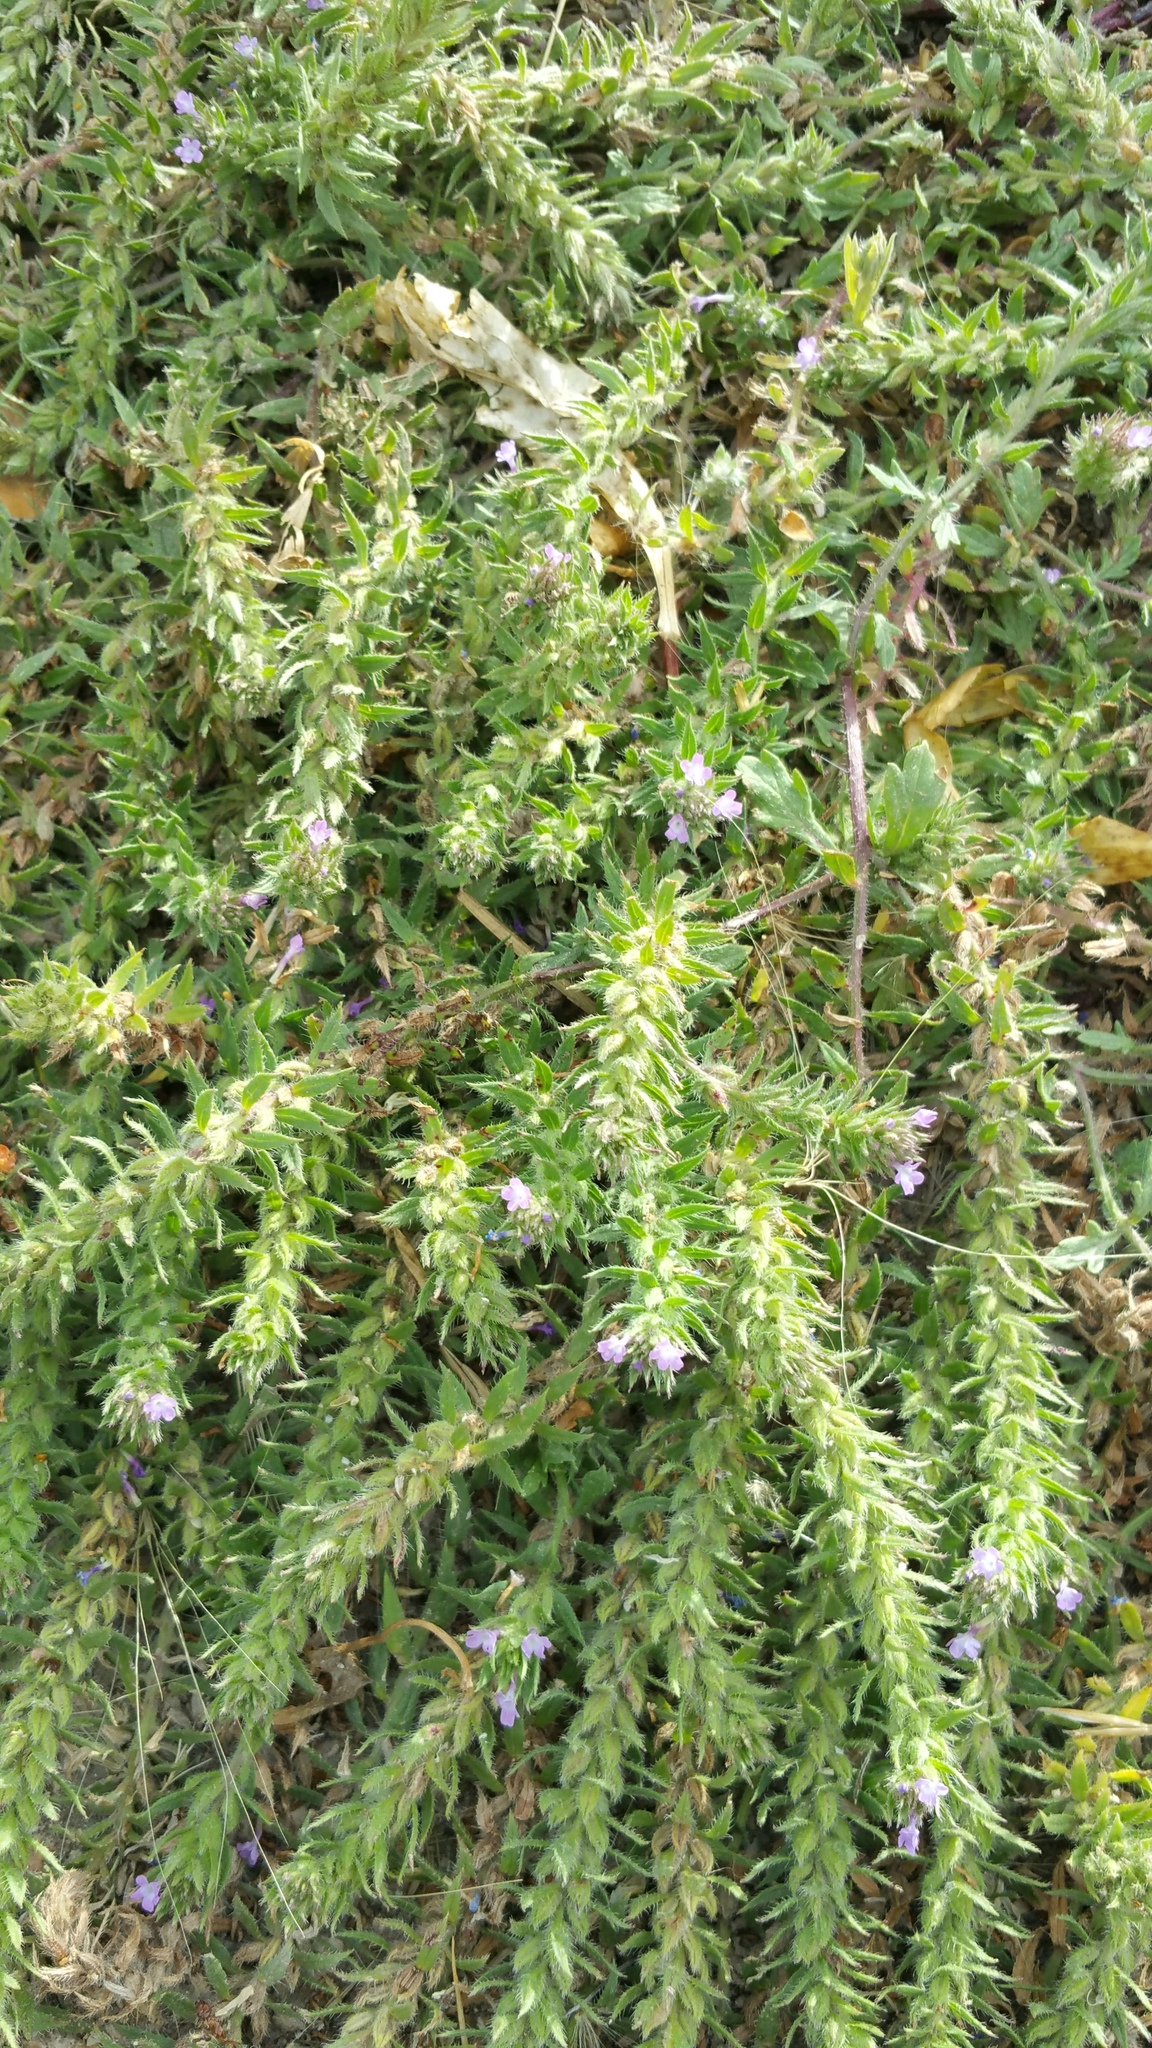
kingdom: Plantae
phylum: Tracheophyta
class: Magnoliopsida
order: Lamiales
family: Verbenaceae
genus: Verbena
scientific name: Verbena bracteata
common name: Bracted vervain
